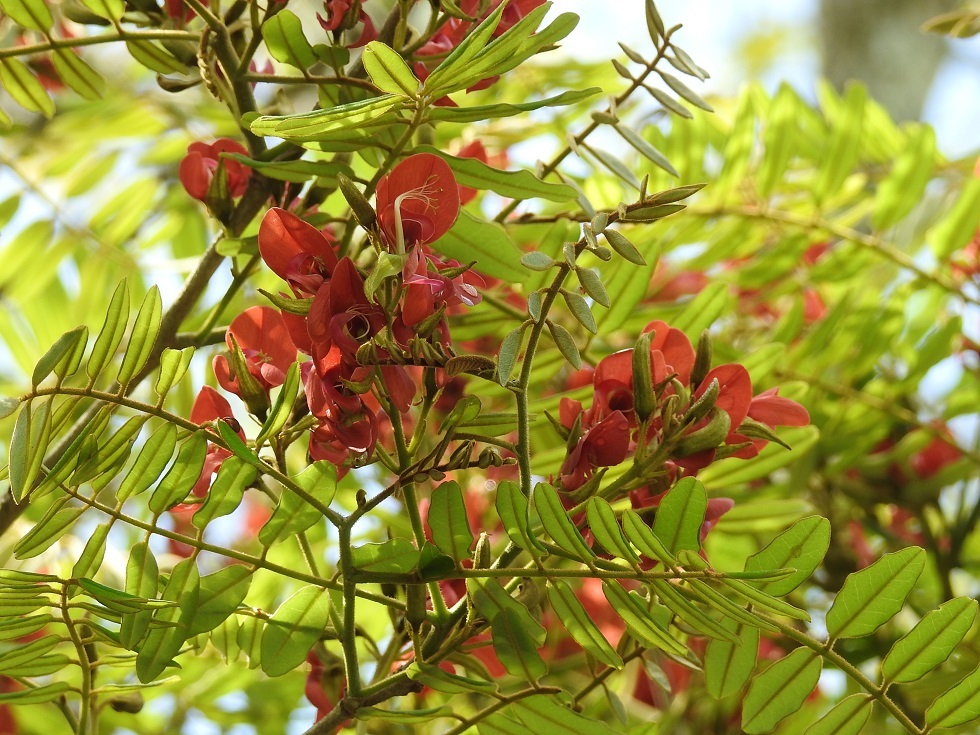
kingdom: Plantae
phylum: Tracheophyta
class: Magnoliopsida
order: Fabales
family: Fabaceae
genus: Harpalyce
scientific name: Harpalyce formosa
